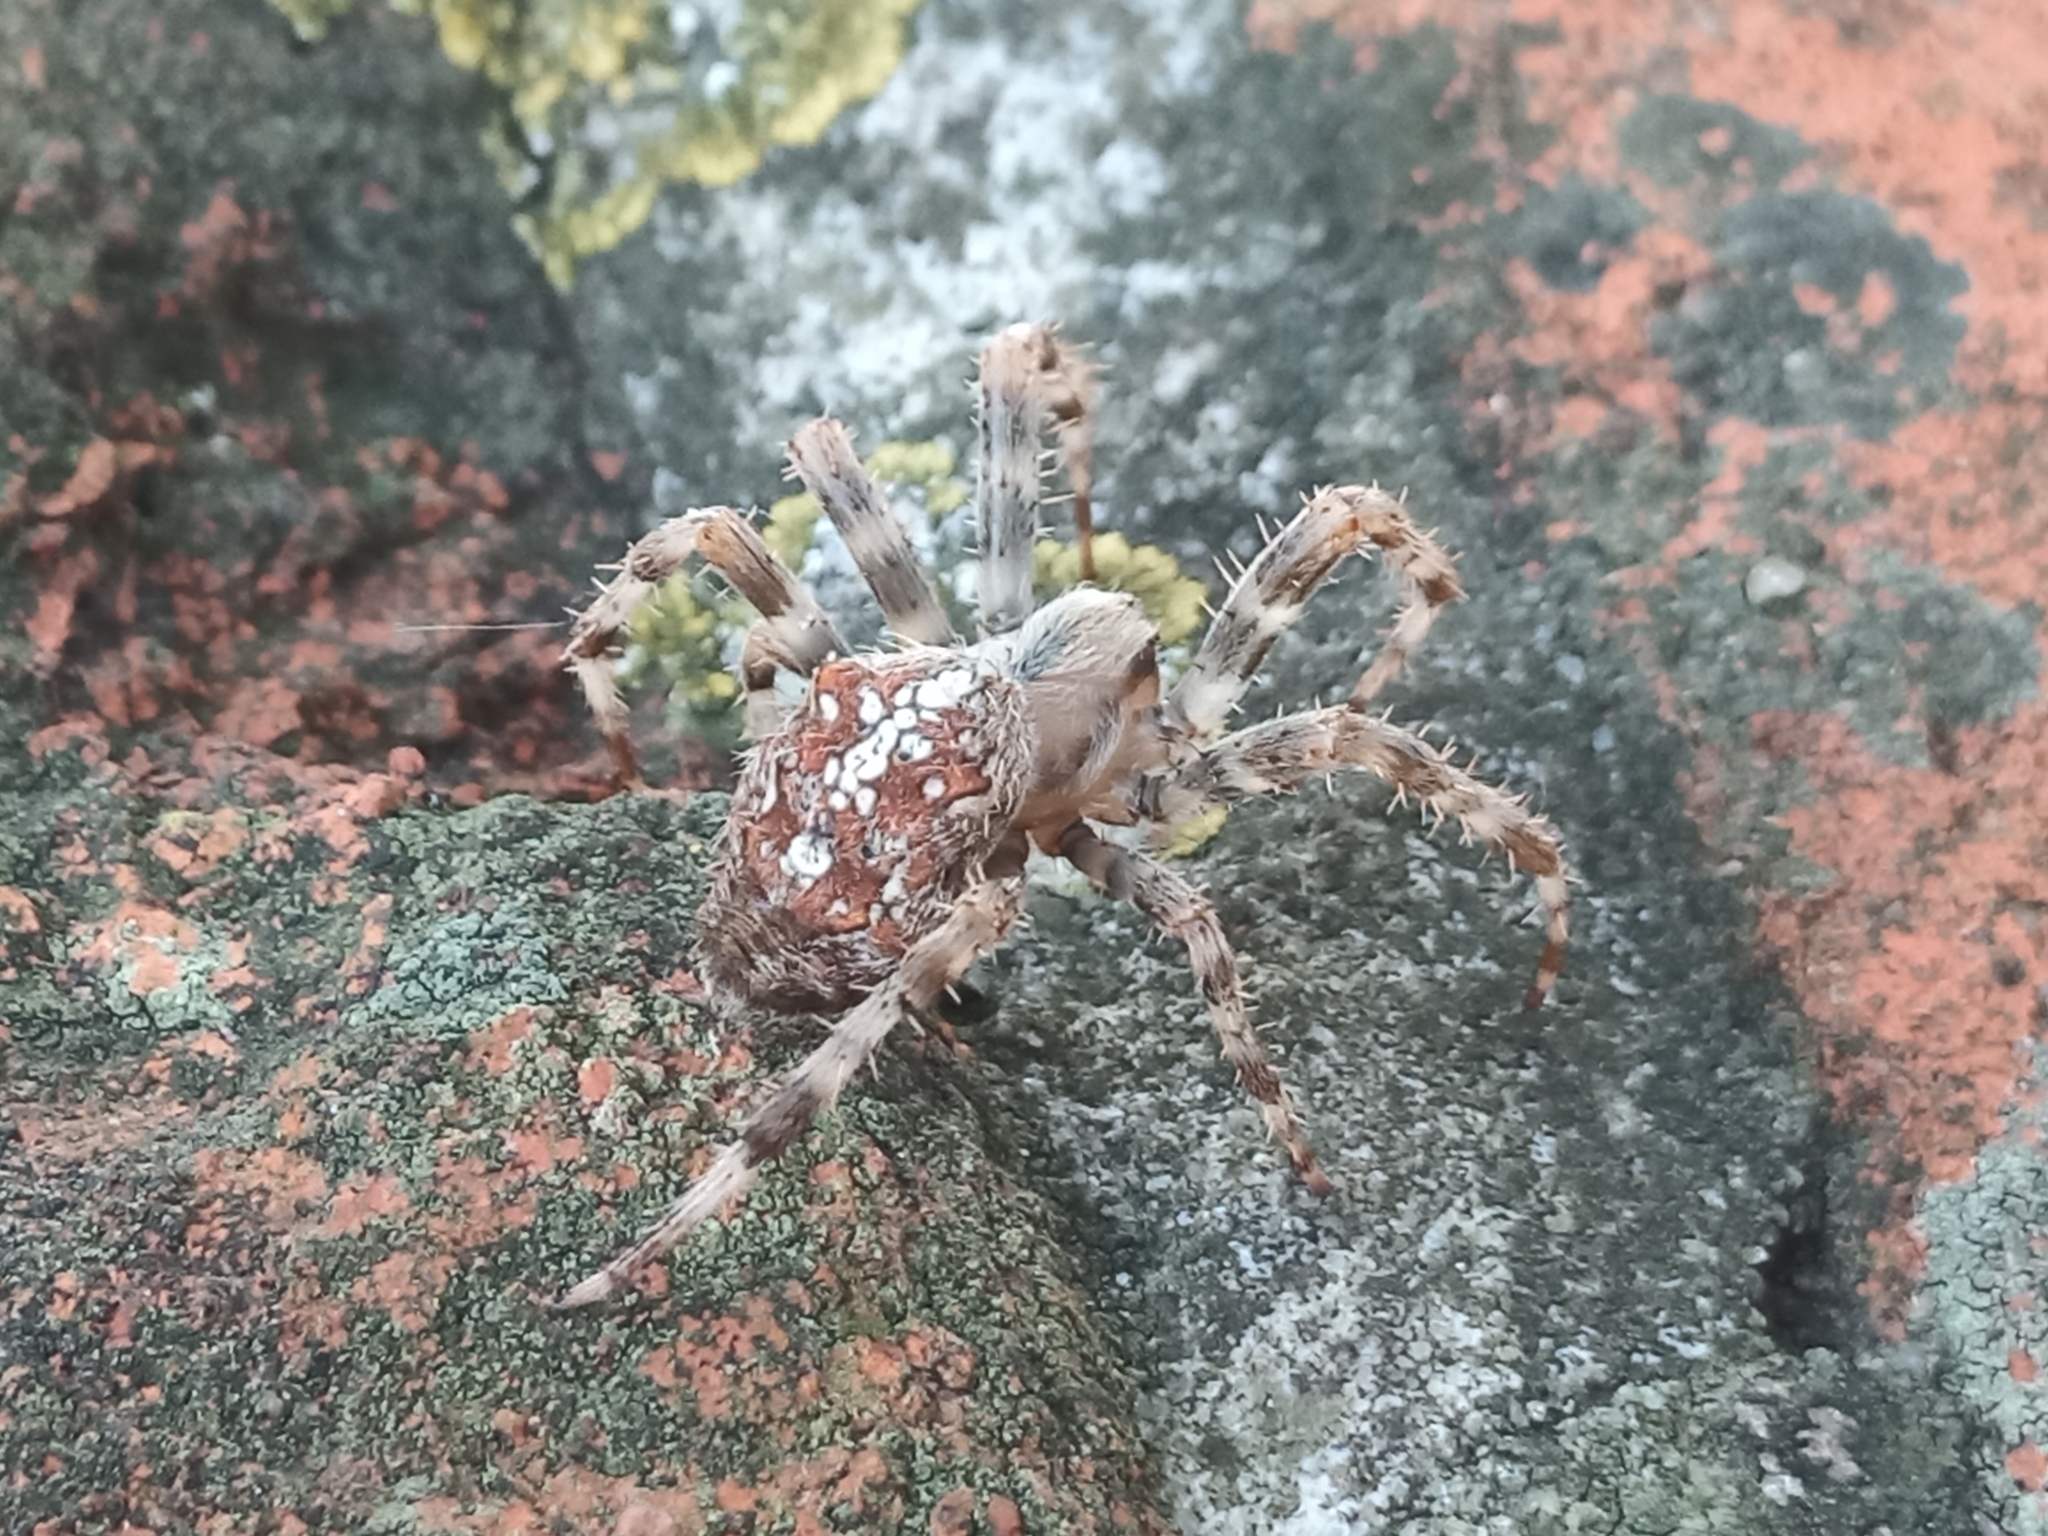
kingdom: Animalia
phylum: Arthropoda
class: Arachnida
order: Araneae
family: Araneidae
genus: Araneus
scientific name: Araneus diadematus
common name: Cross orbweaver
